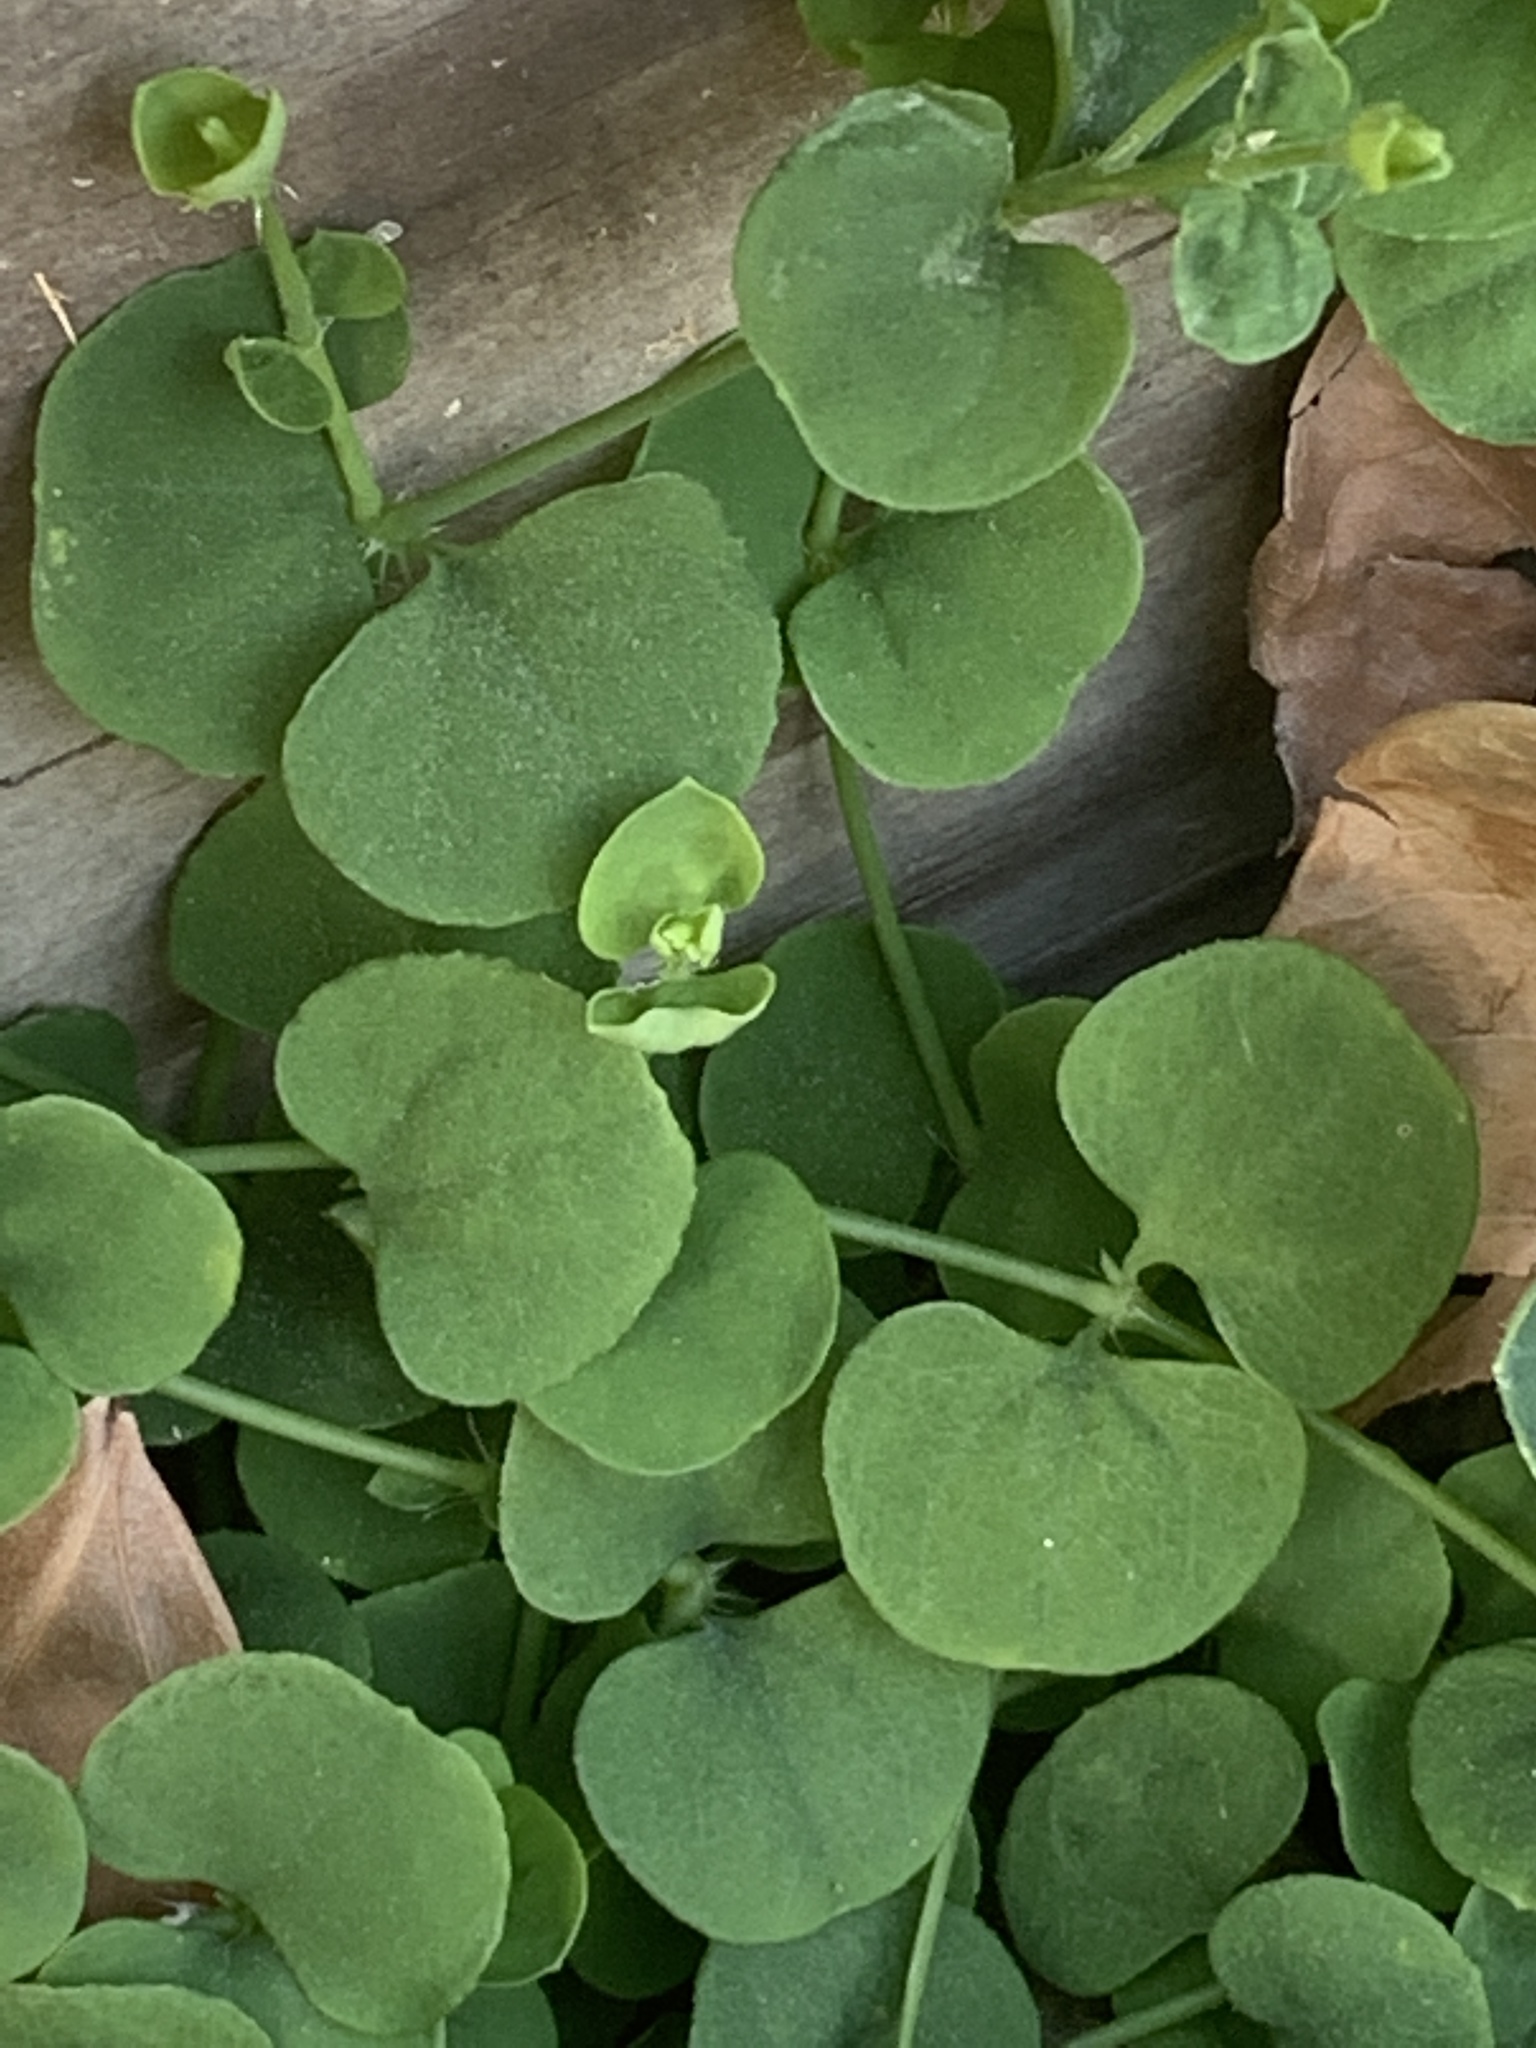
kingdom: Plantae
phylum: Tracheophyta
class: Magnoliopsida
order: Caryophyllales
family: Caryophyllaceae
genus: Drymaria
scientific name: Drymaria cordata
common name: Whitesnow
